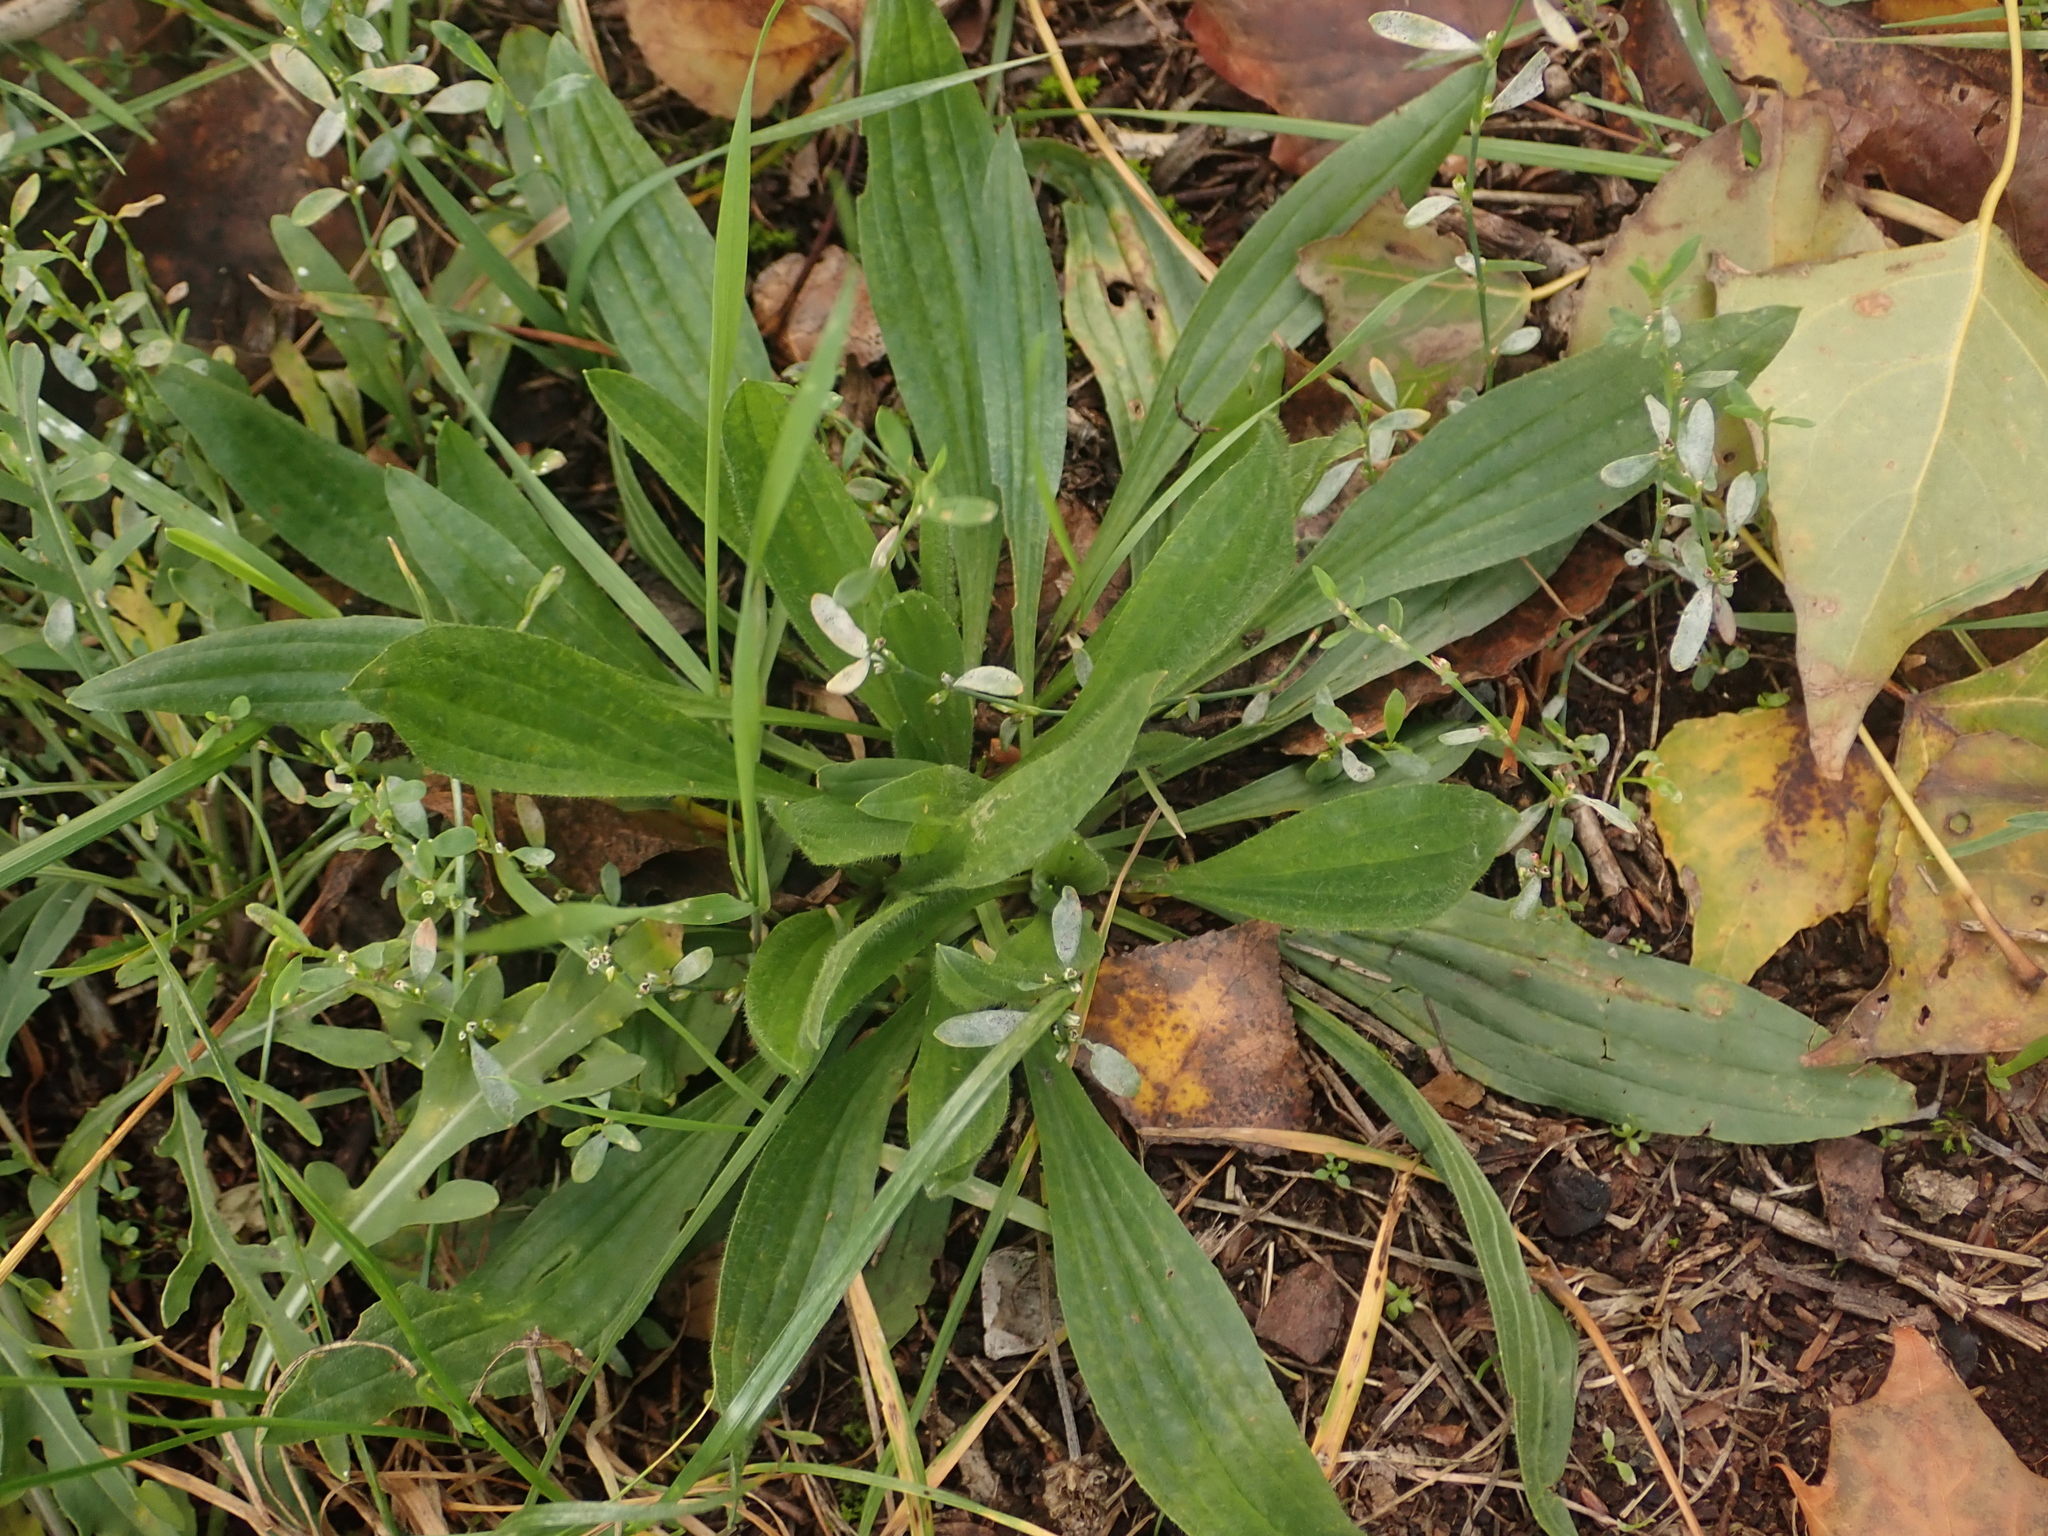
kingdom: Plantae
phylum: Tracheophyta
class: Magnoliopsida
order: Lamiales
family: Plantaginaceae
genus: Plantago
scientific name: Plantago lanceolata
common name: Ribwort plantain
